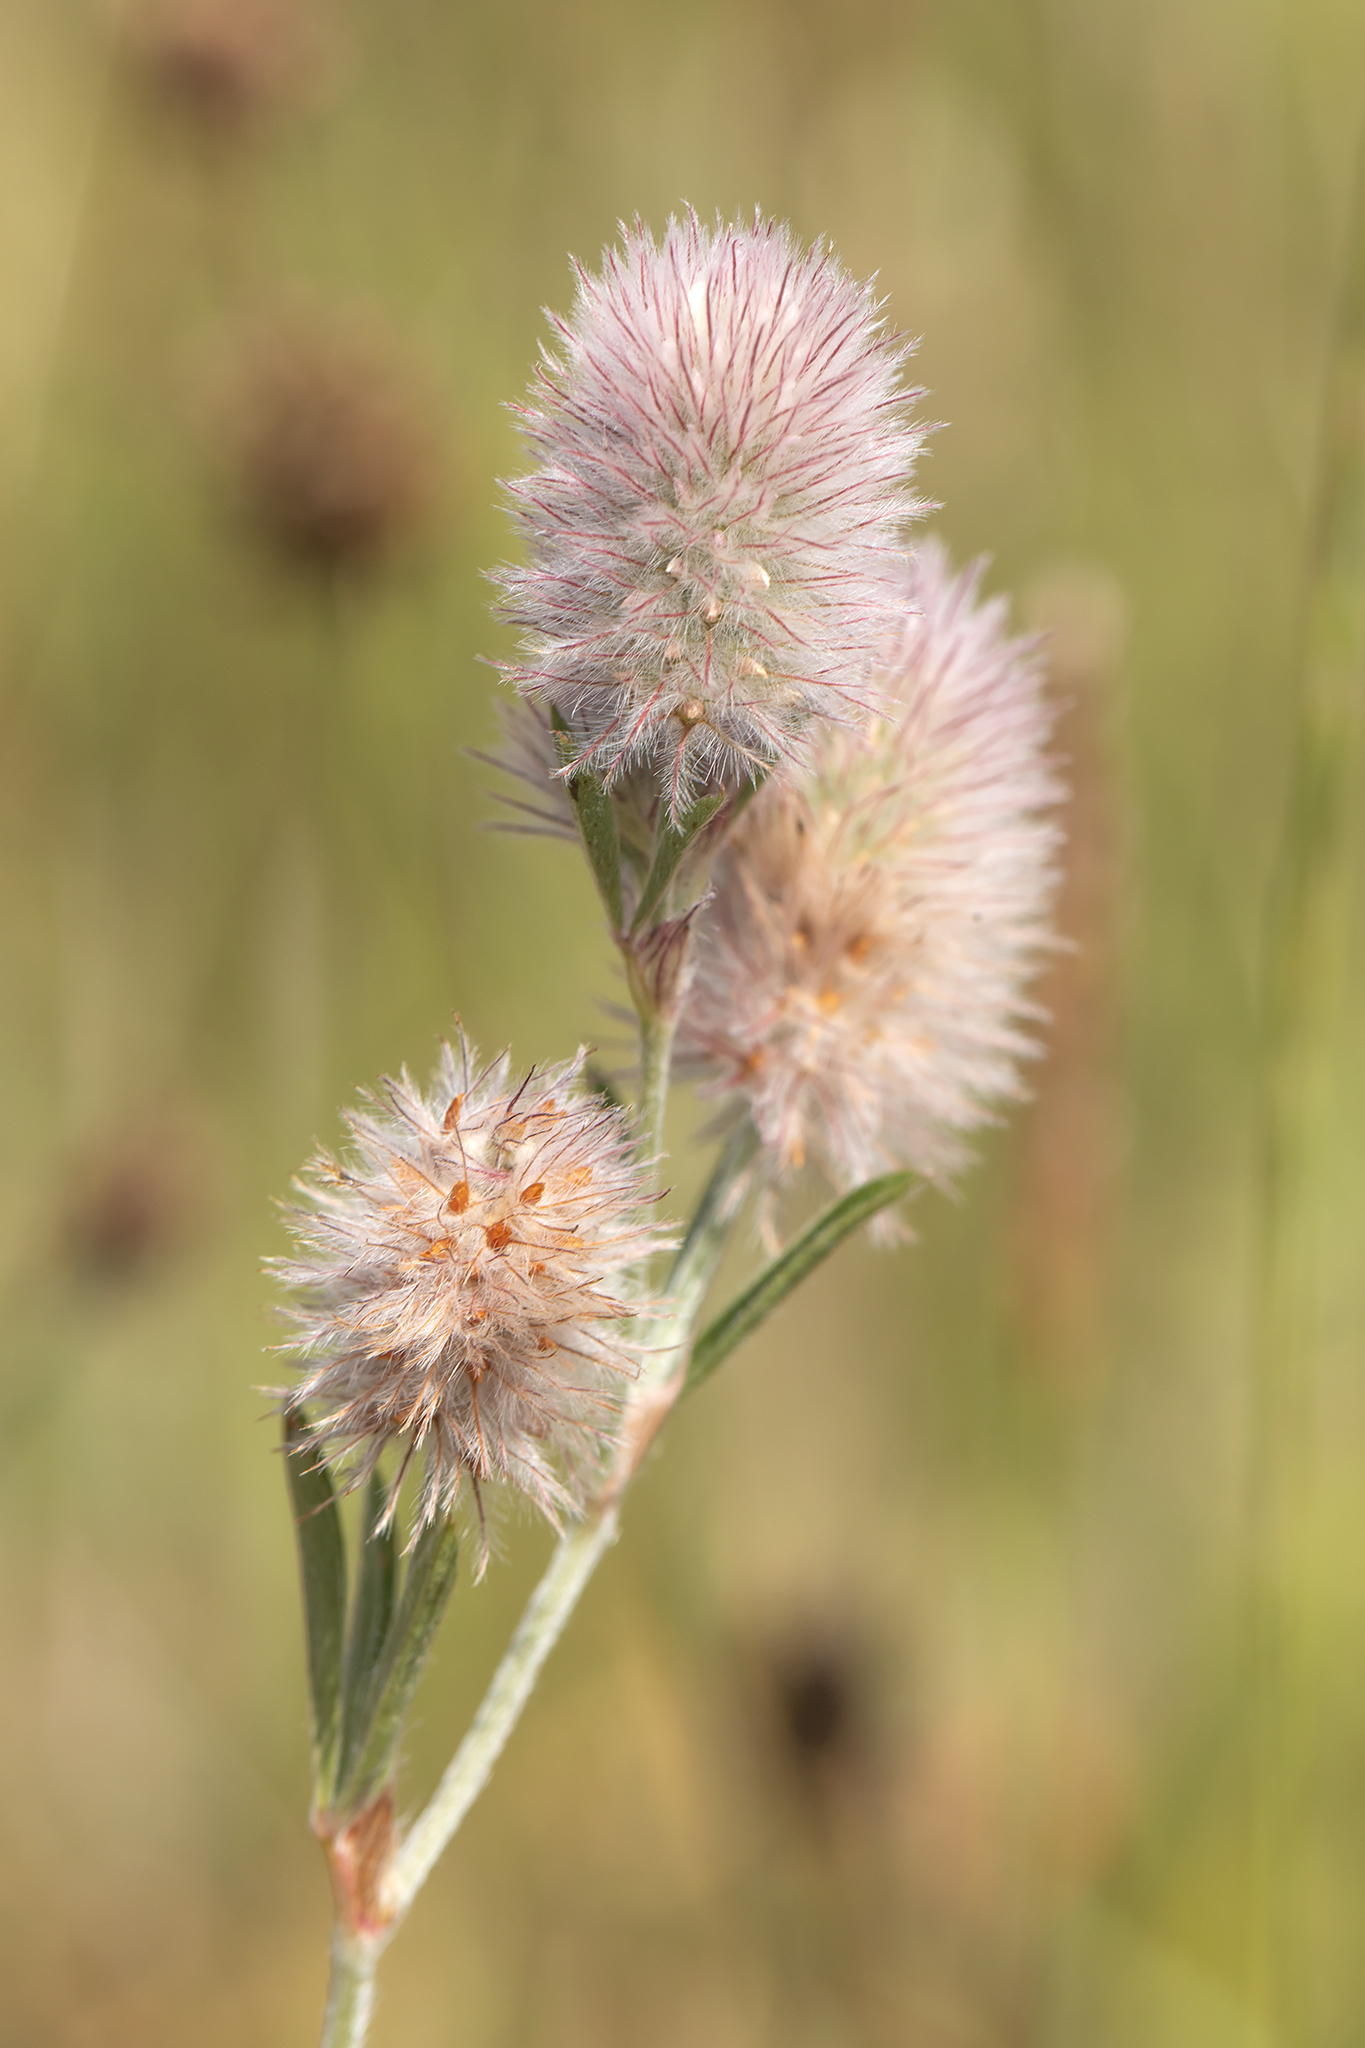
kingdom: Plantae
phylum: Tracheophyta
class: Magnoliopsida
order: Fabales
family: Fabaceae
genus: Trifolium
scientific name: Trifolium arvense
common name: Hare's-foot clover
